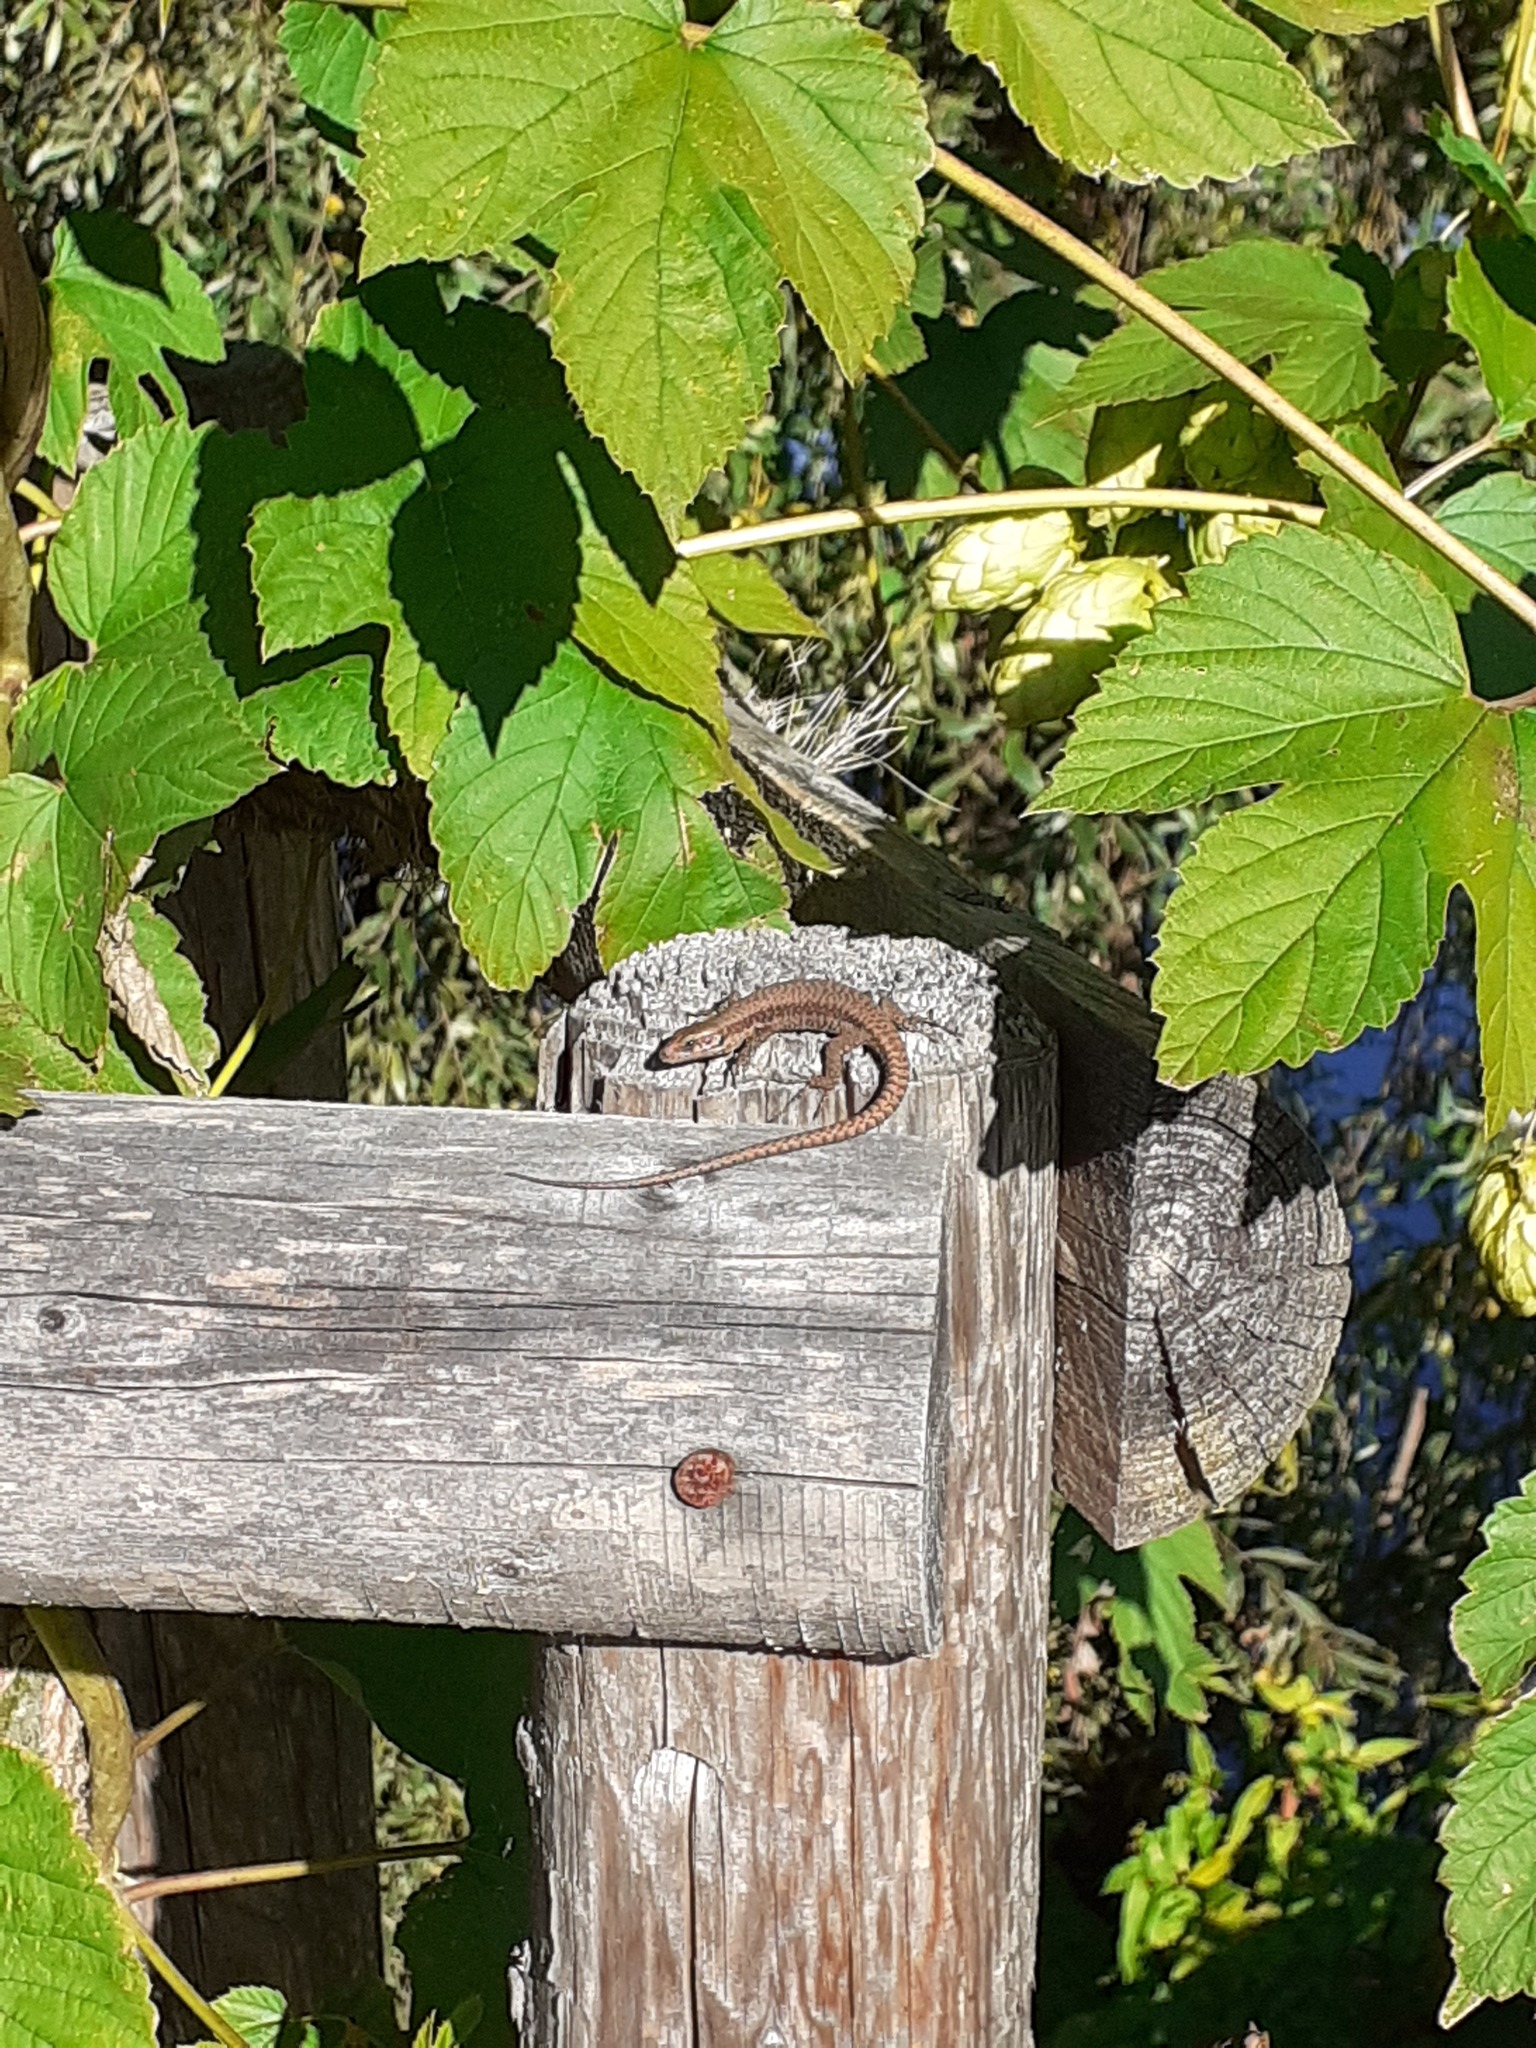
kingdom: Animalia
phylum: Chordata
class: Squamata
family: Lacertidae
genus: Podarcis
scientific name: Podarcis muralis
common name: Common wall lizard
